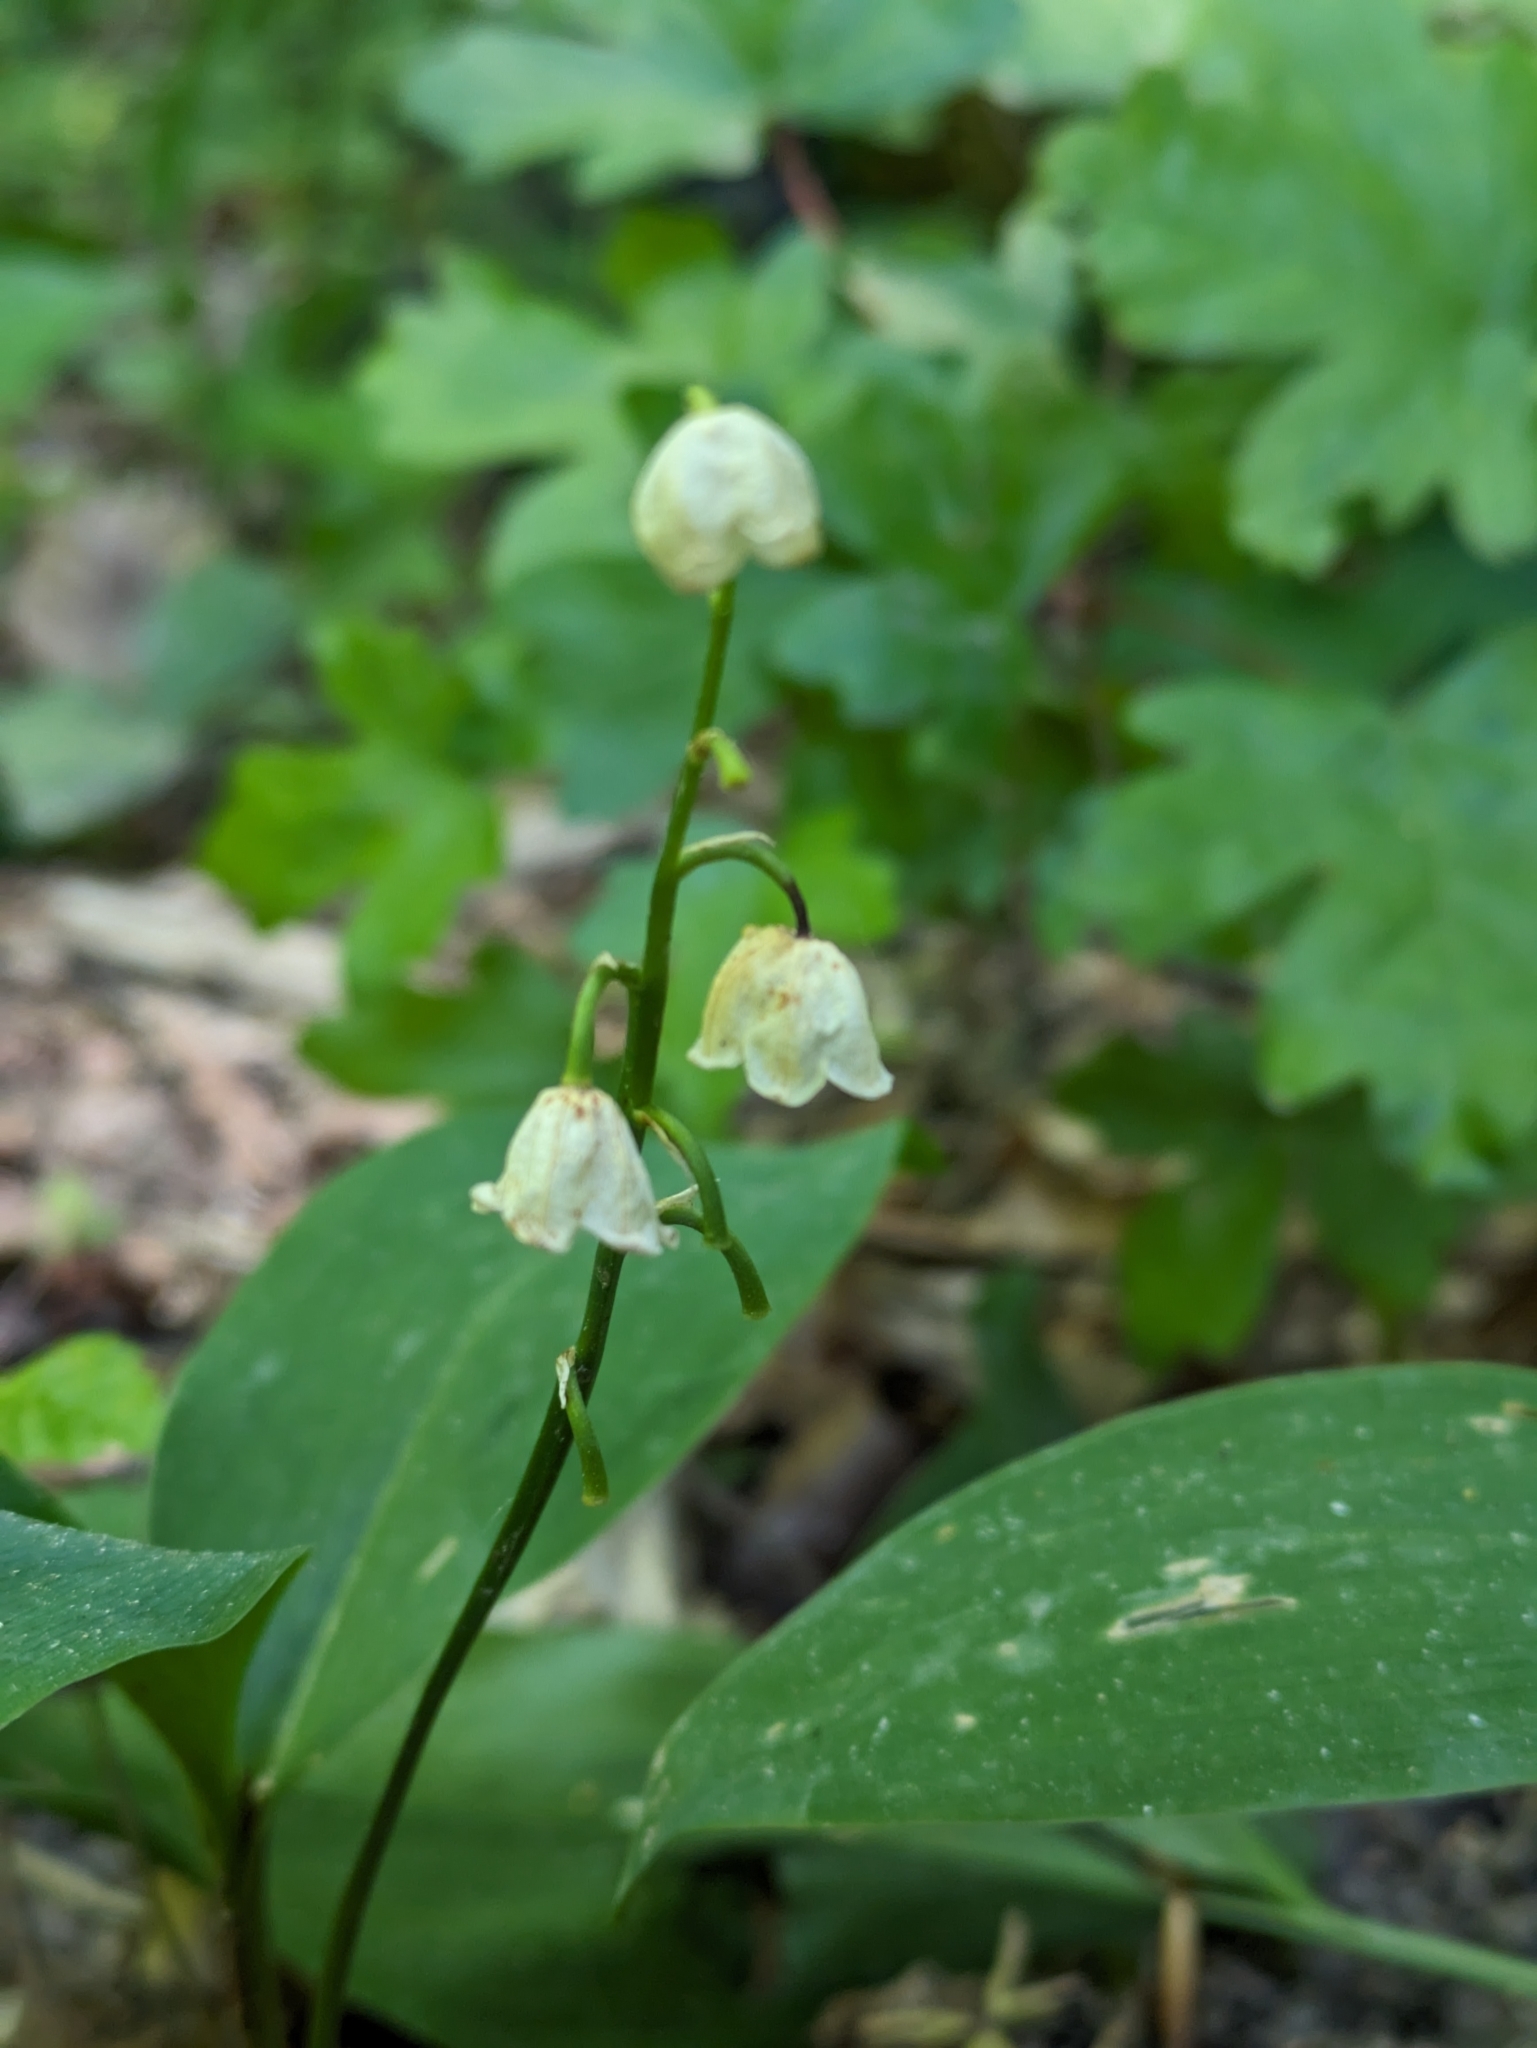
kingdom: Plantae
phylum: Tracheophyta
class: Liliopsida
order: Asparagales
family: Asparagaceae
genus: Convallaria
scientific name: Convallaria majalis
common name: Lily-of-the-valley
